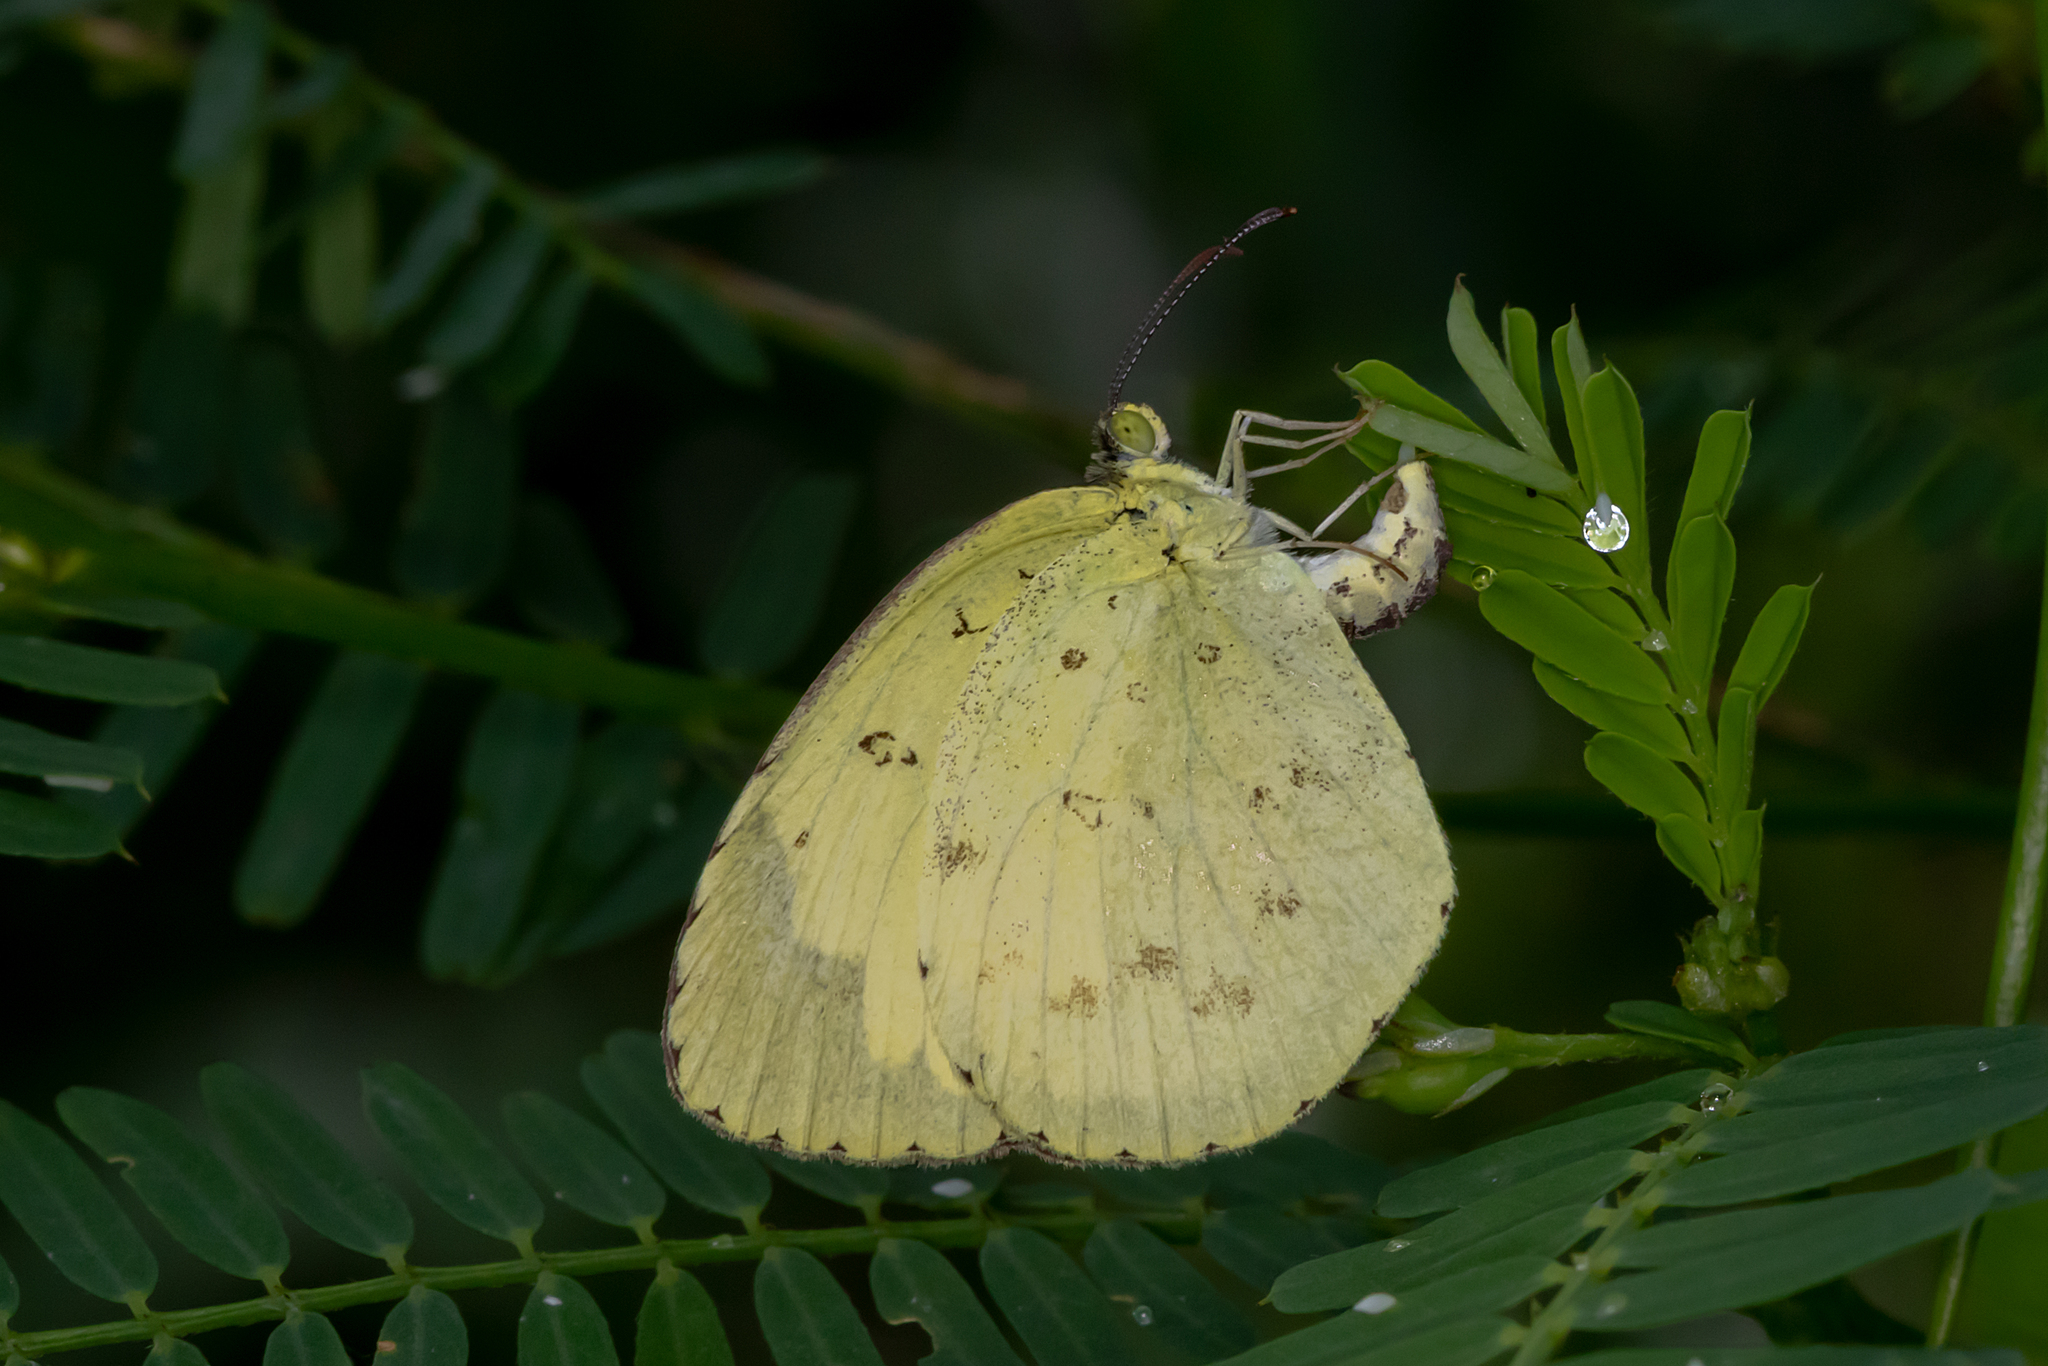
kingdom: Animalia
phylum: Arthropoda
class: Insecta
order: Lepidoptera
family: Pieridae
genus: Eurema
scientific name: Eurema hecabe
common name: Pale grass yellow
